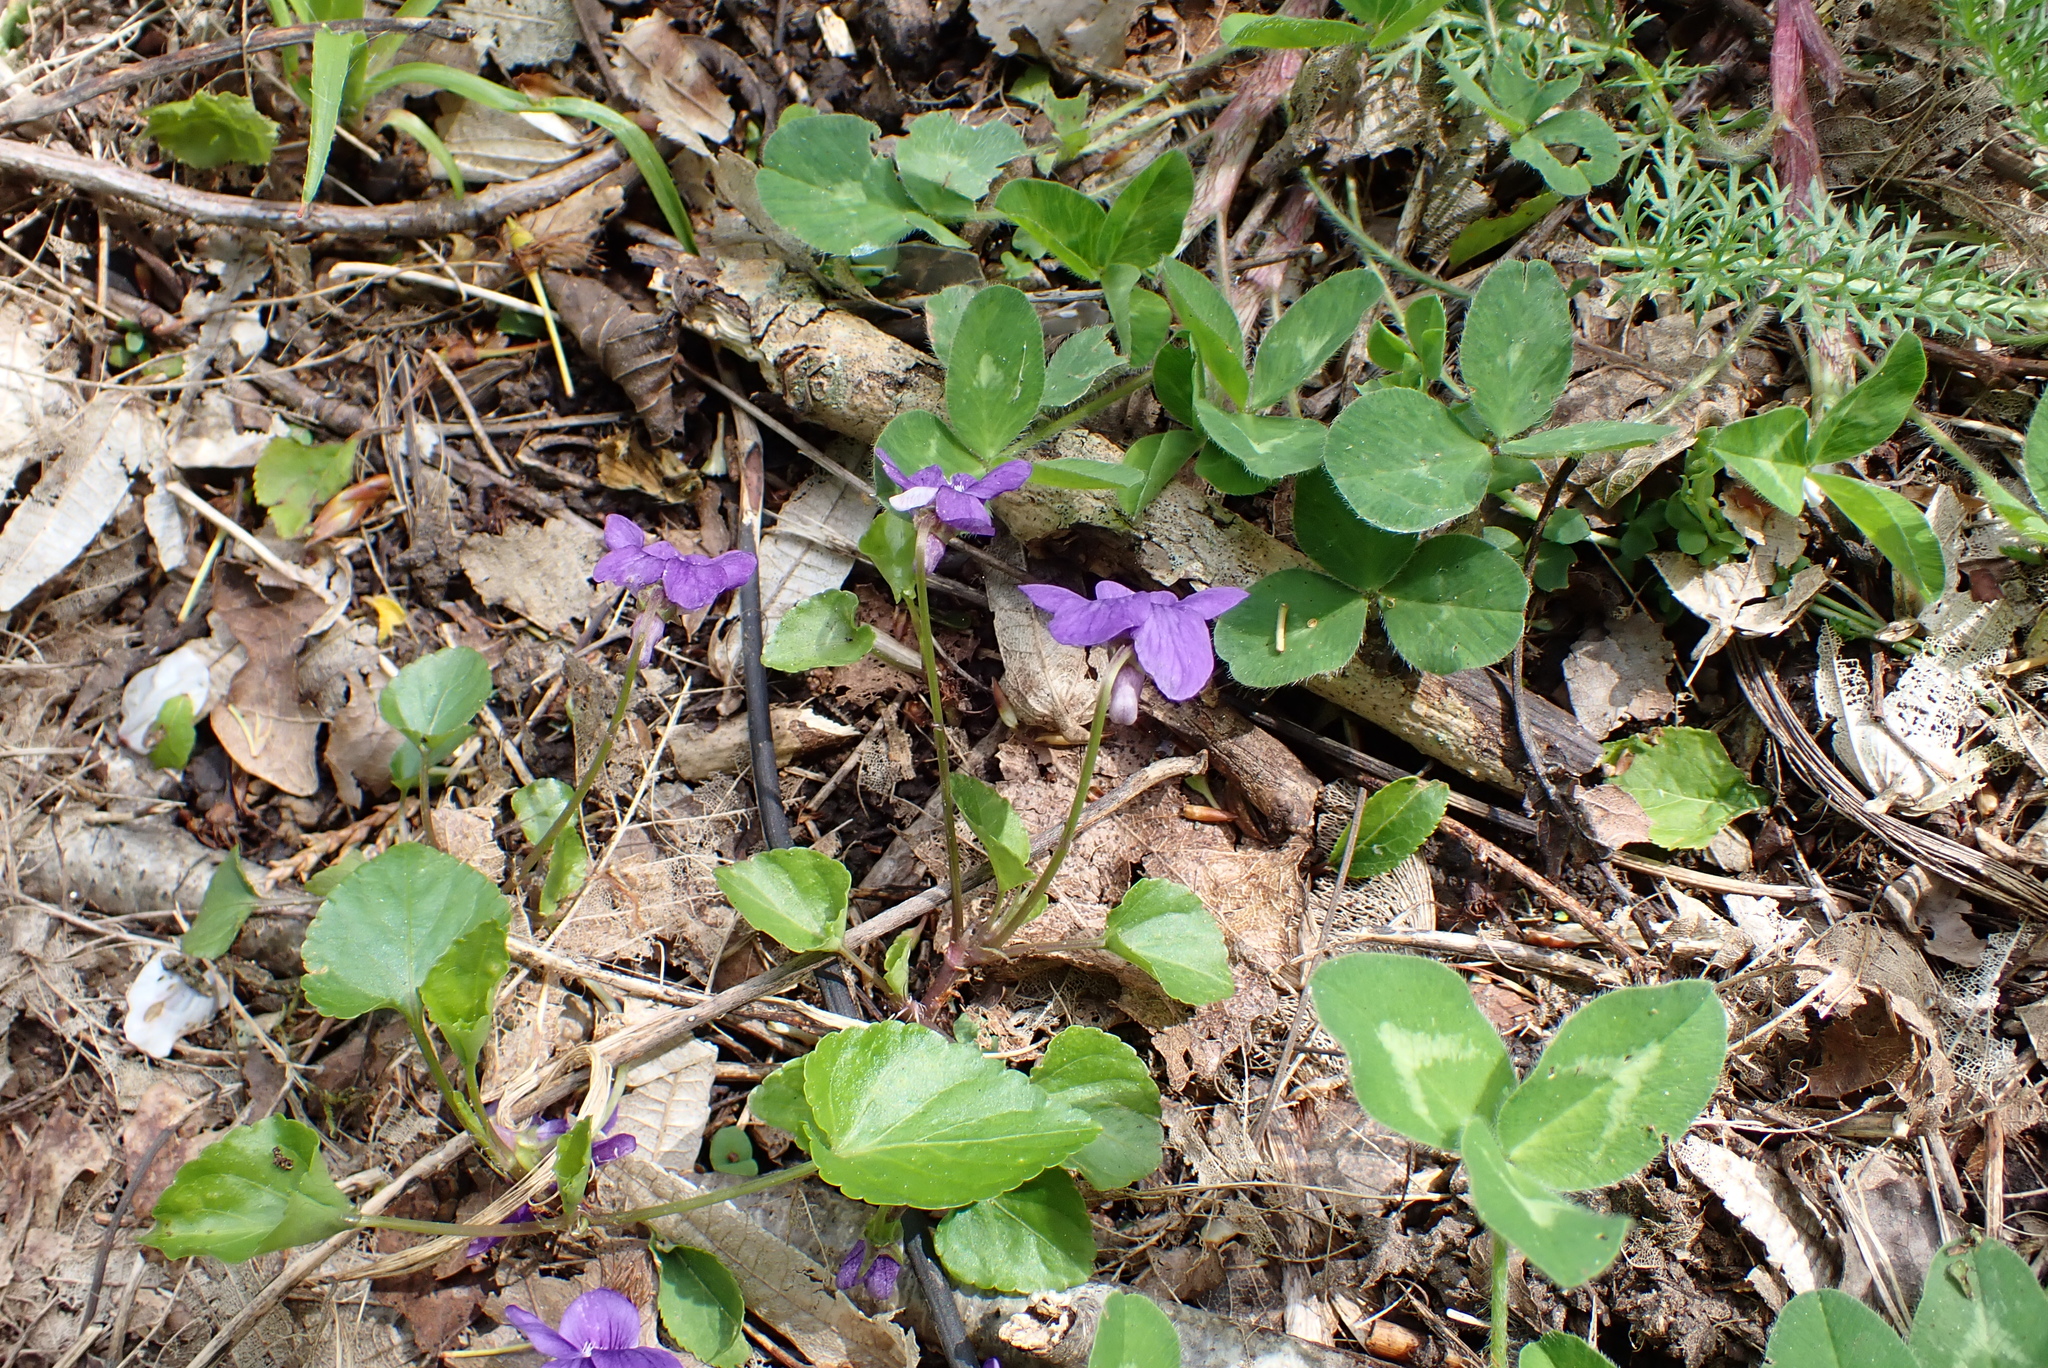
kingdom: Plantae
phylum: Tracheophyta
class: Magnoliopsida
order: Malpighiales
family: Violaceae
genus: Viola
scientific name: Viola riviniana
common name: Common dog-violet
